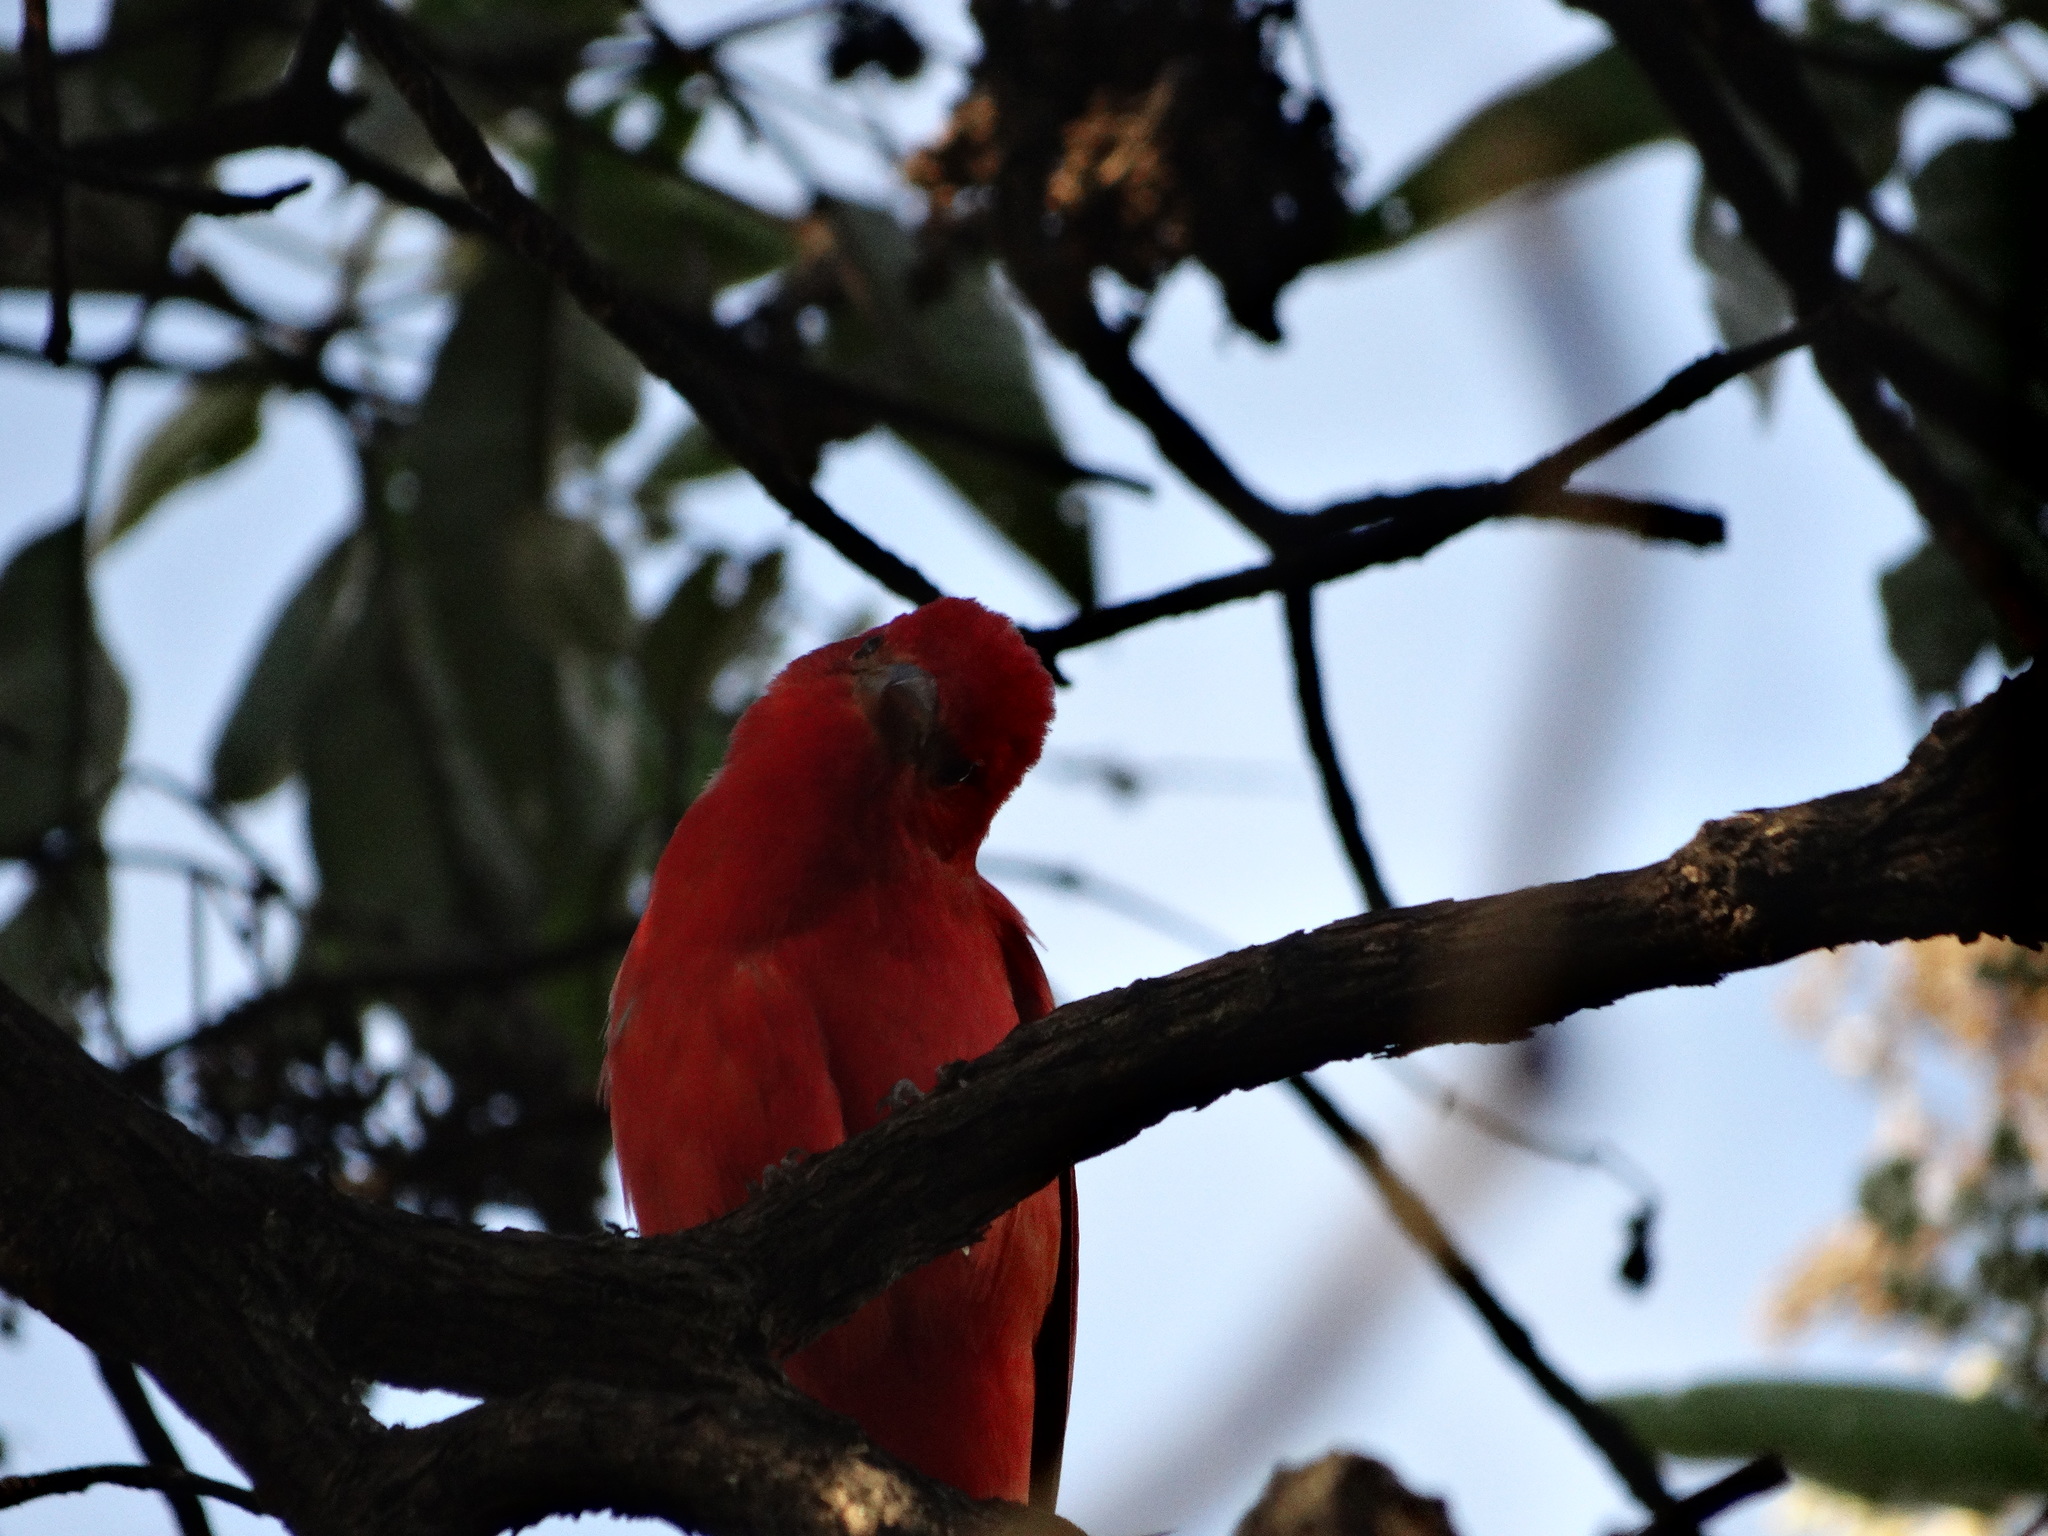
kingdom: Animalia
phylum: Chordata
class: Aves
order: Passeriformes
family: Cardinalidae
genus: Piranga
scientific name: Piranga rubra
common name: Summer tanager
